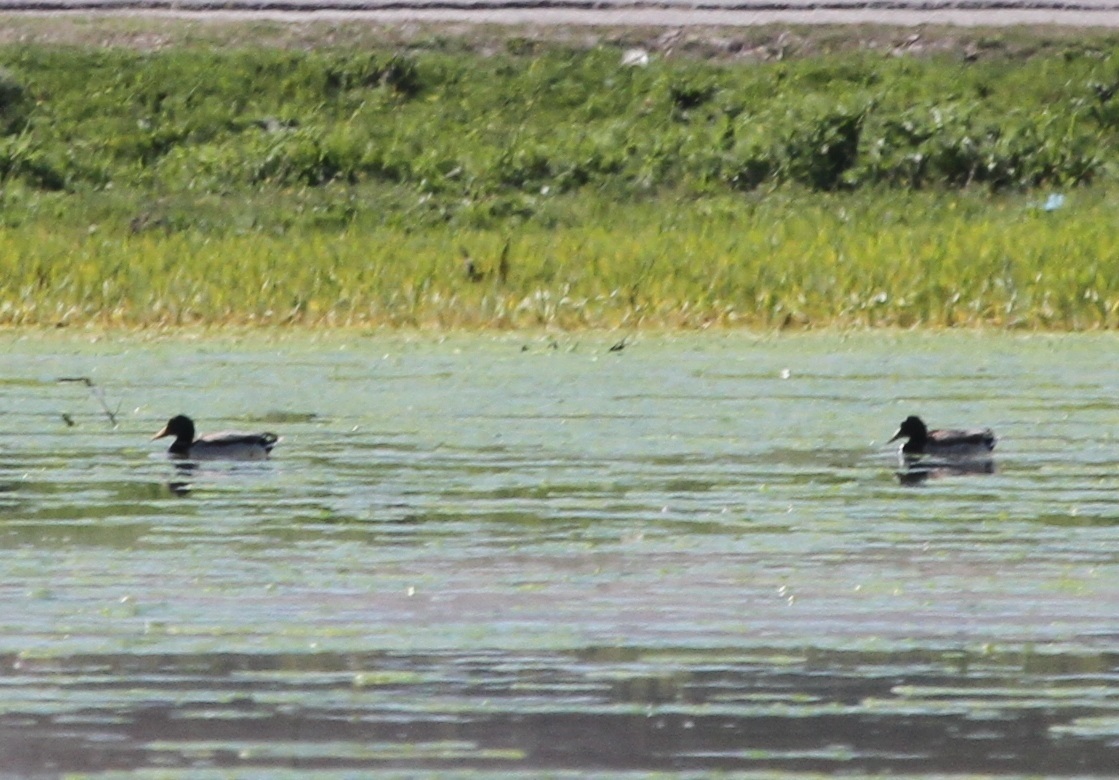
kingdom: Animalia
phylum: Chordata
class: Aves
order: Anseriformes
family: Anatidae
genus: Anas
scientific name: Anas platyrhynchos
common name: Mallard
